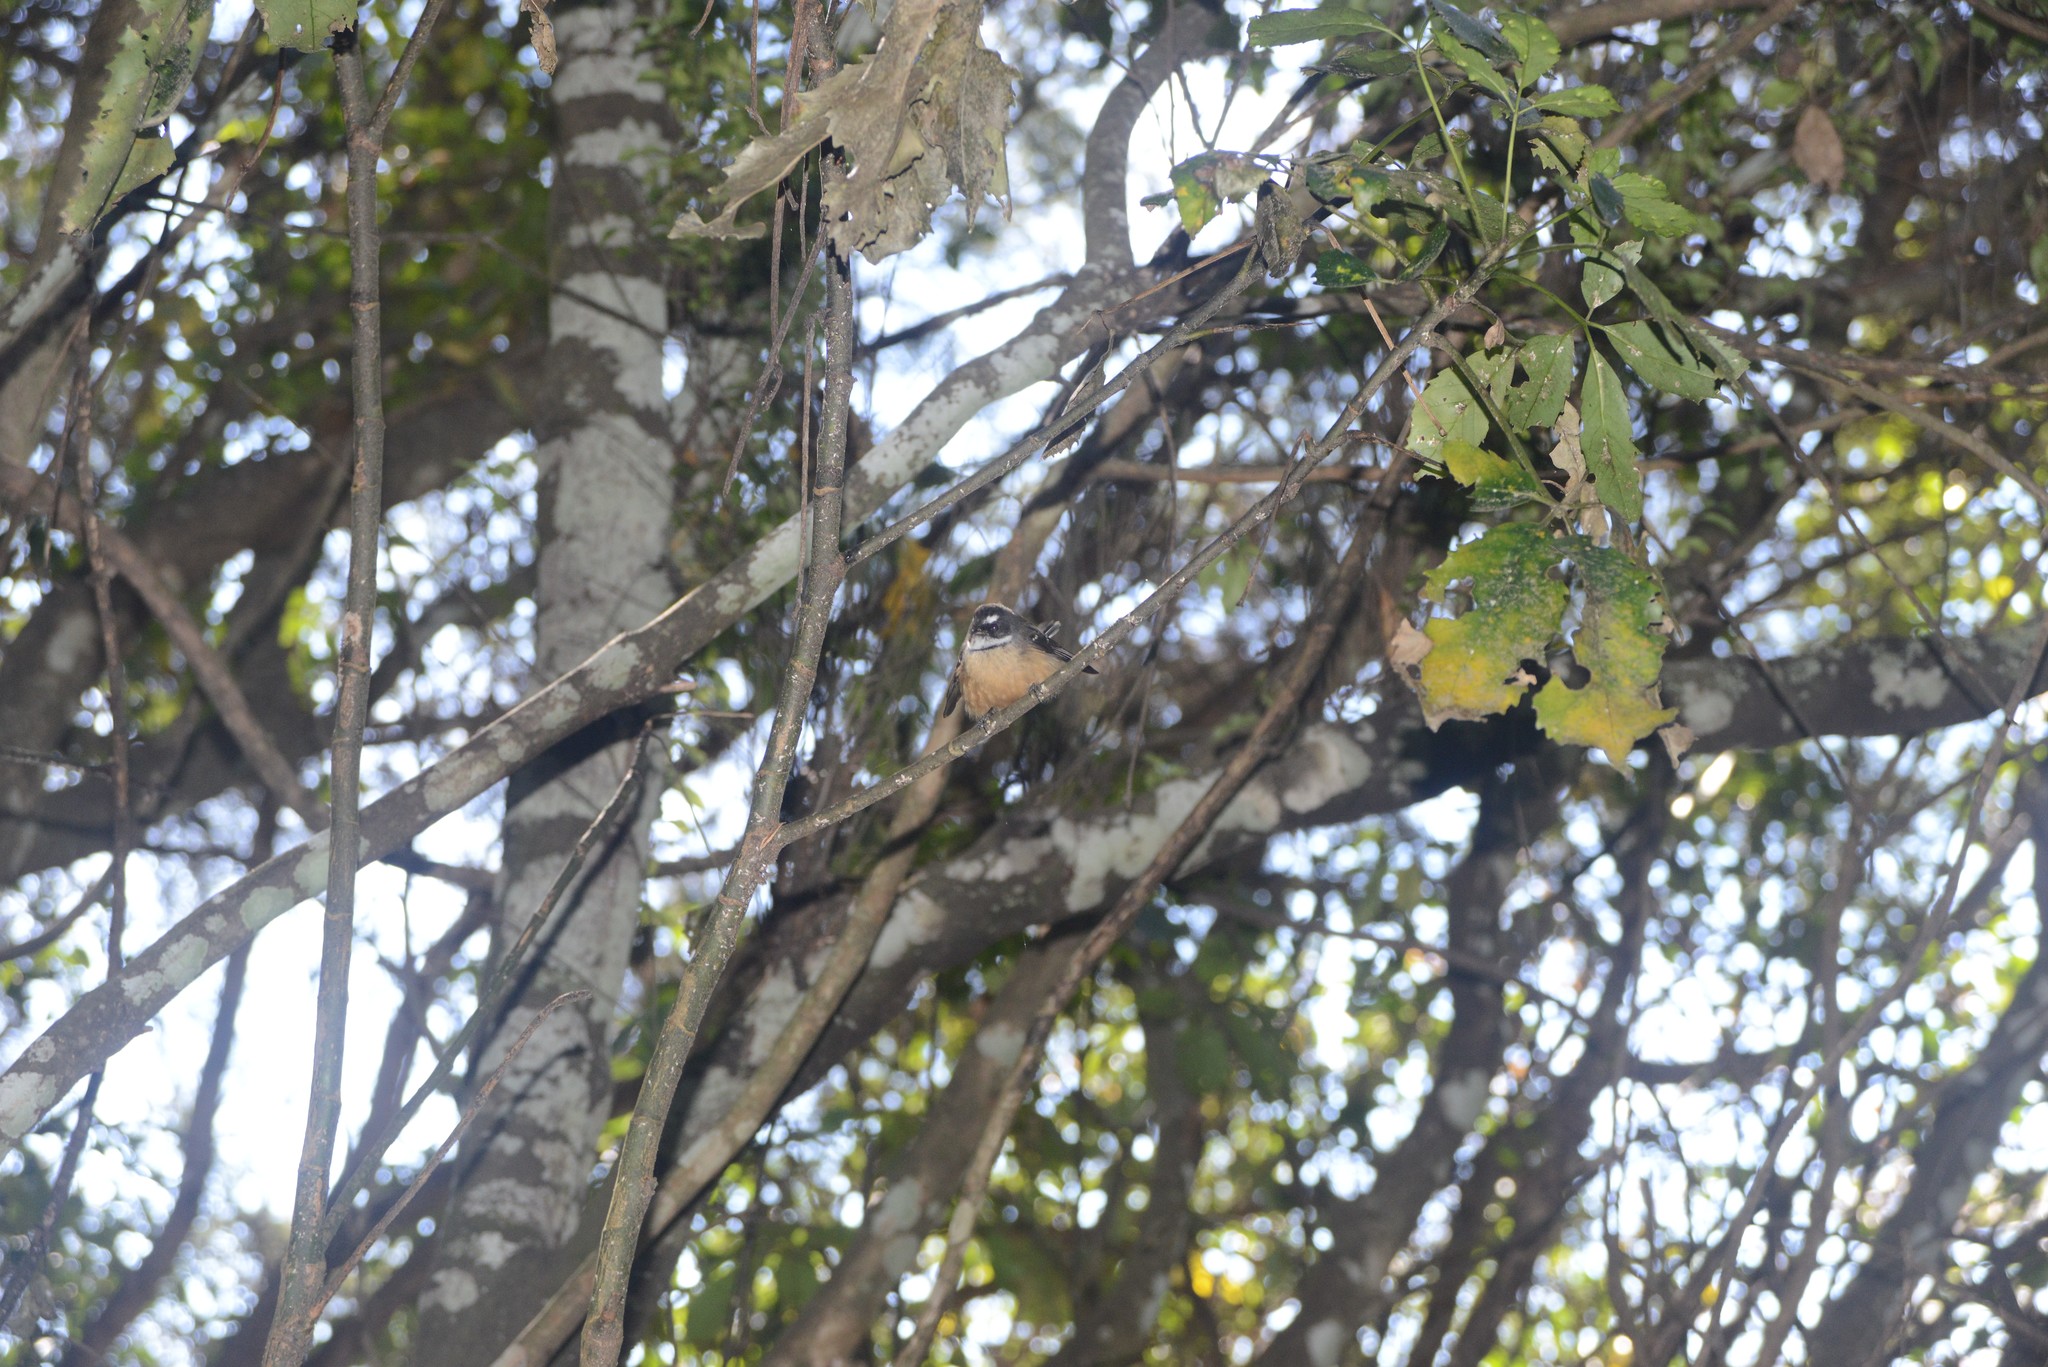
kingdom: Animalia
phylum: Chordata
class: Aves
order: Passeriformes
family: Rhipiduridae
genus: Rhipidura
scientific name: Rhipidura fuliginosa
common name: New zealand fantail
